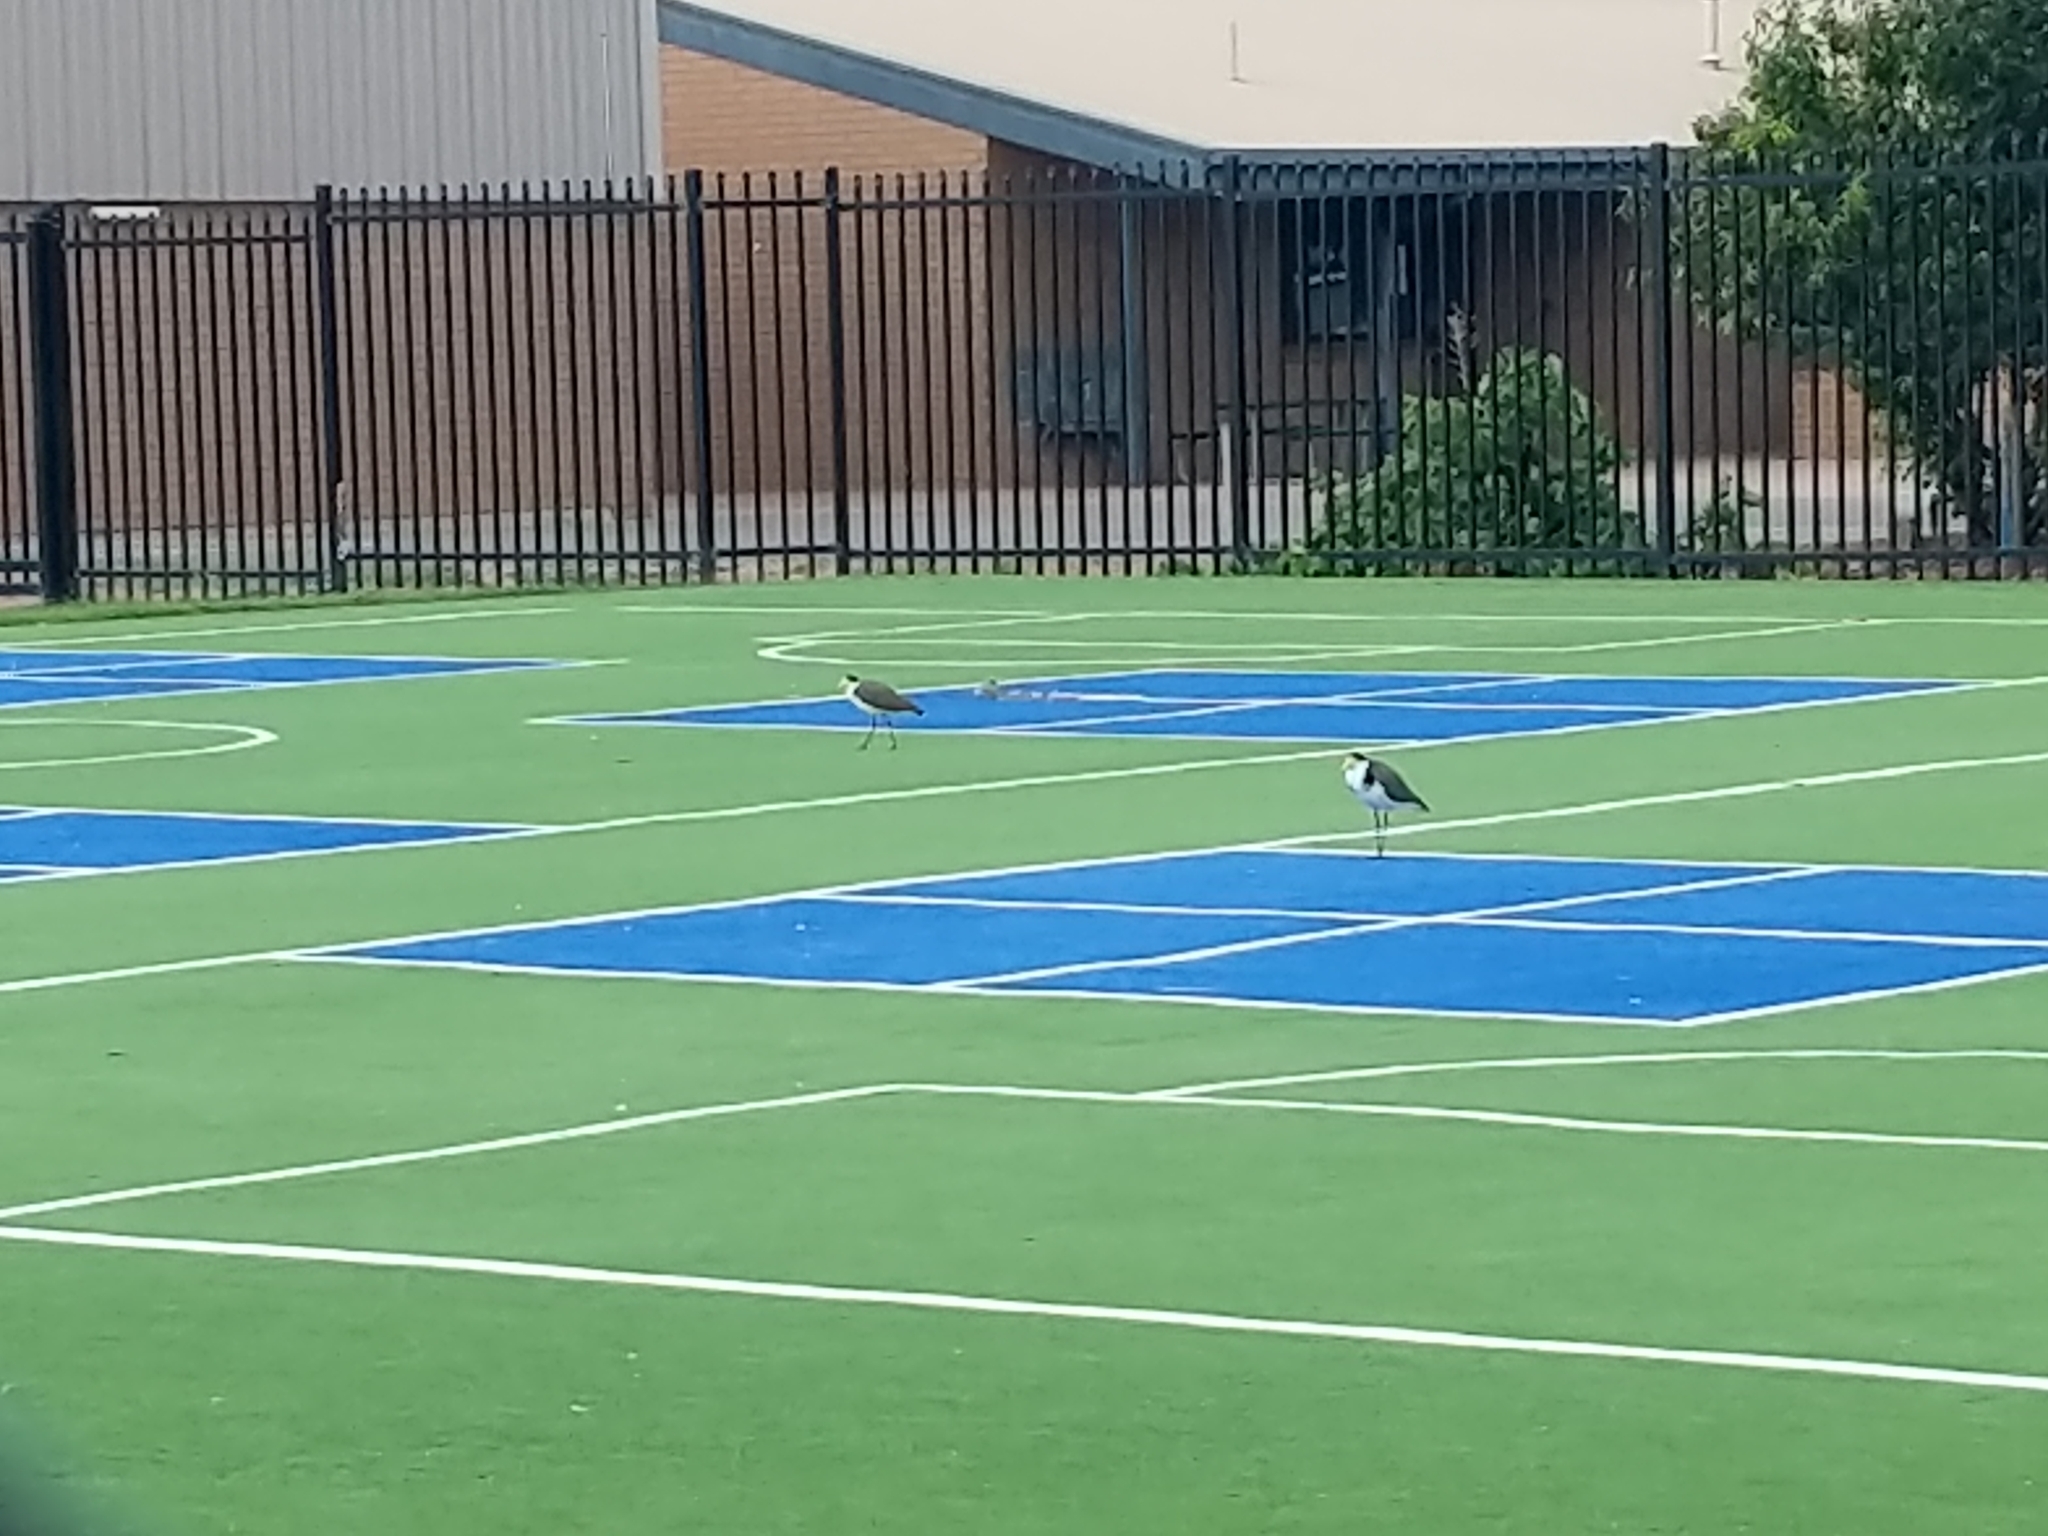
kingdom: Animalia
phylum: Chordata
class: Aves
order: Charadriiformes
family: Charadriidae
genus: Vanellus
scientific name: Vanellus miles
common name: Masked lapwing
